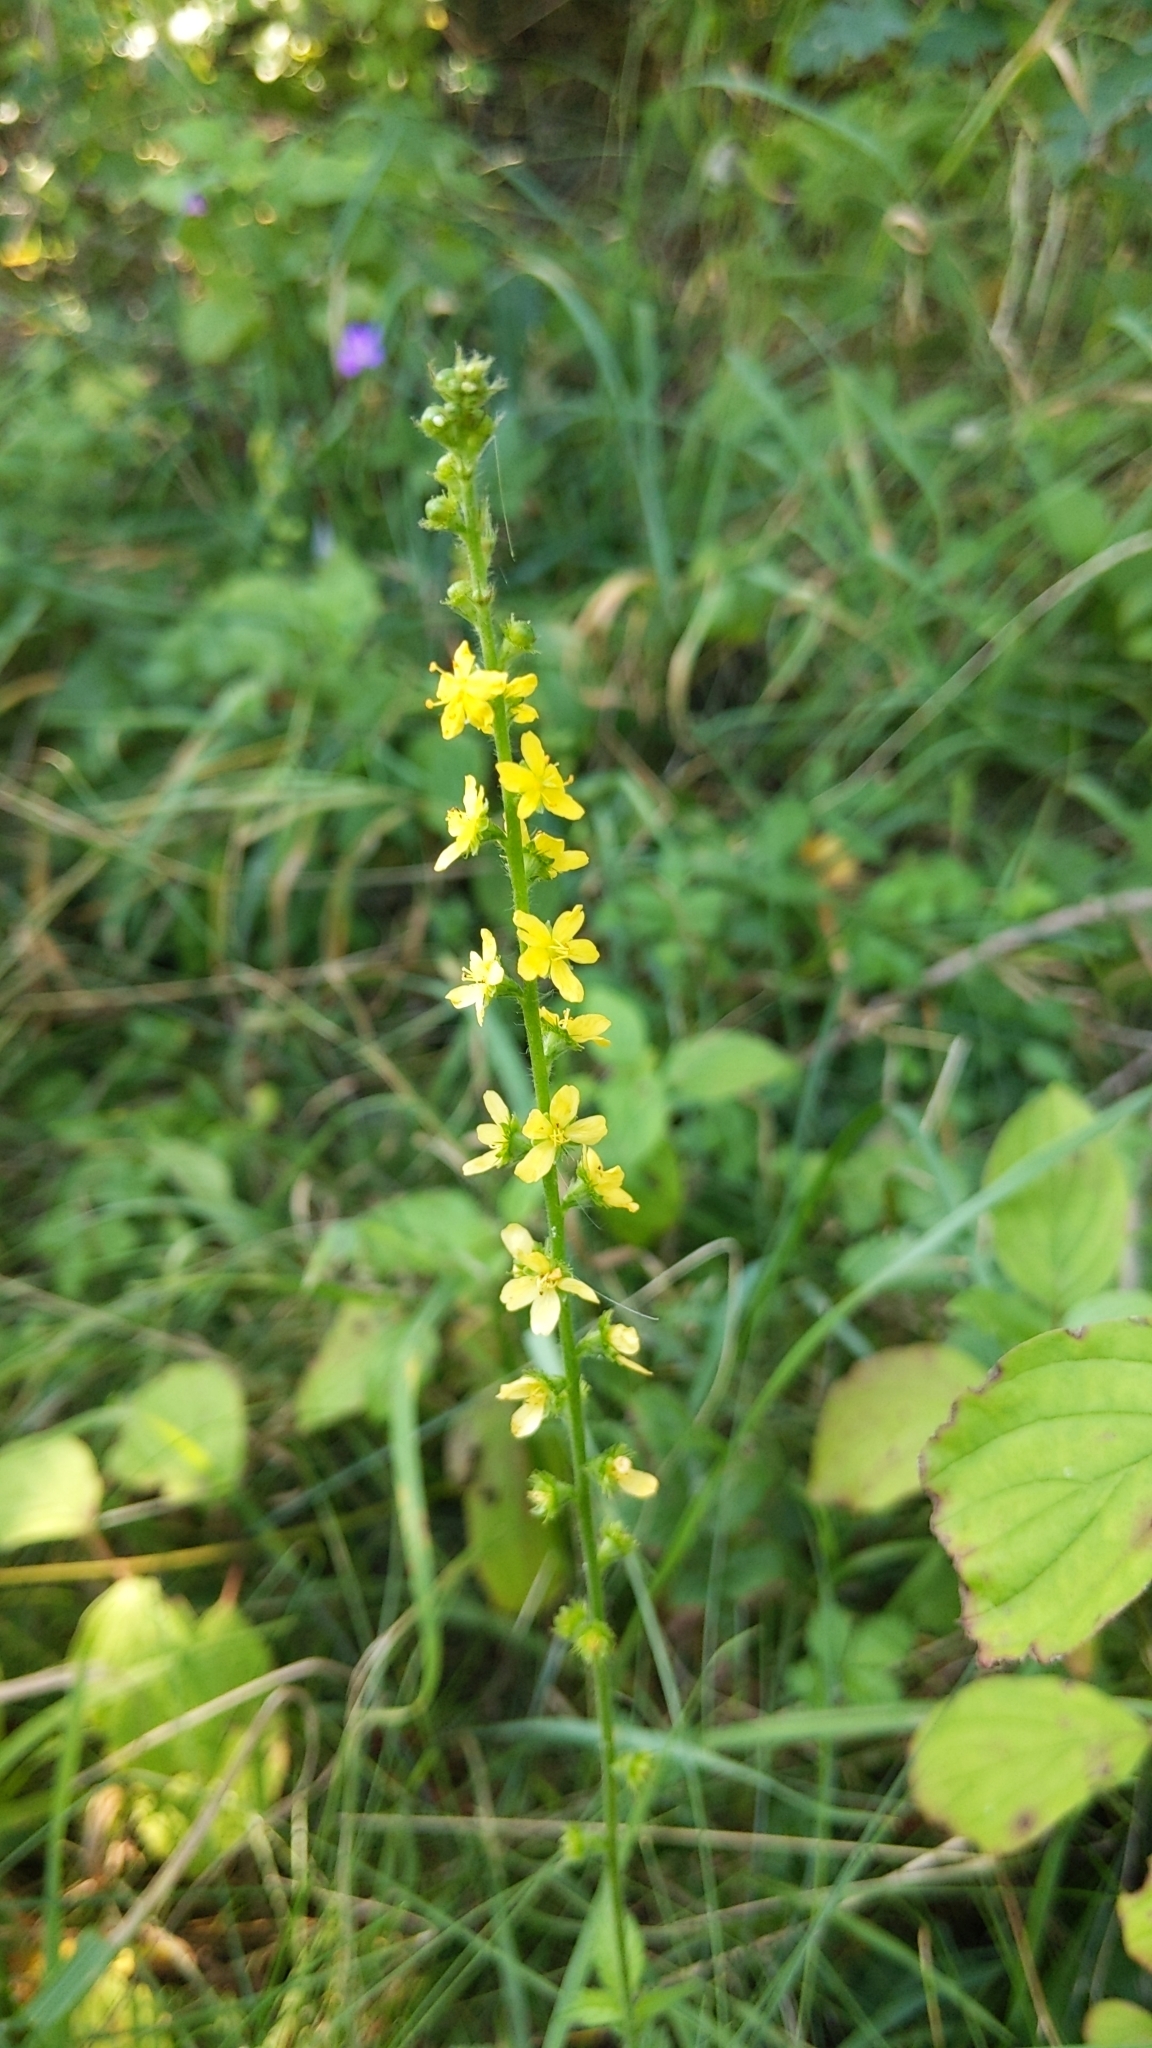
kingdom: Plantae
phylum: Tracheophyta
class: Magnoliopsida
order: Rosales
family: Rosaceae
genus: Agrimonia
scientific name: Agrimonia eupatoria
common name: Agrimony
